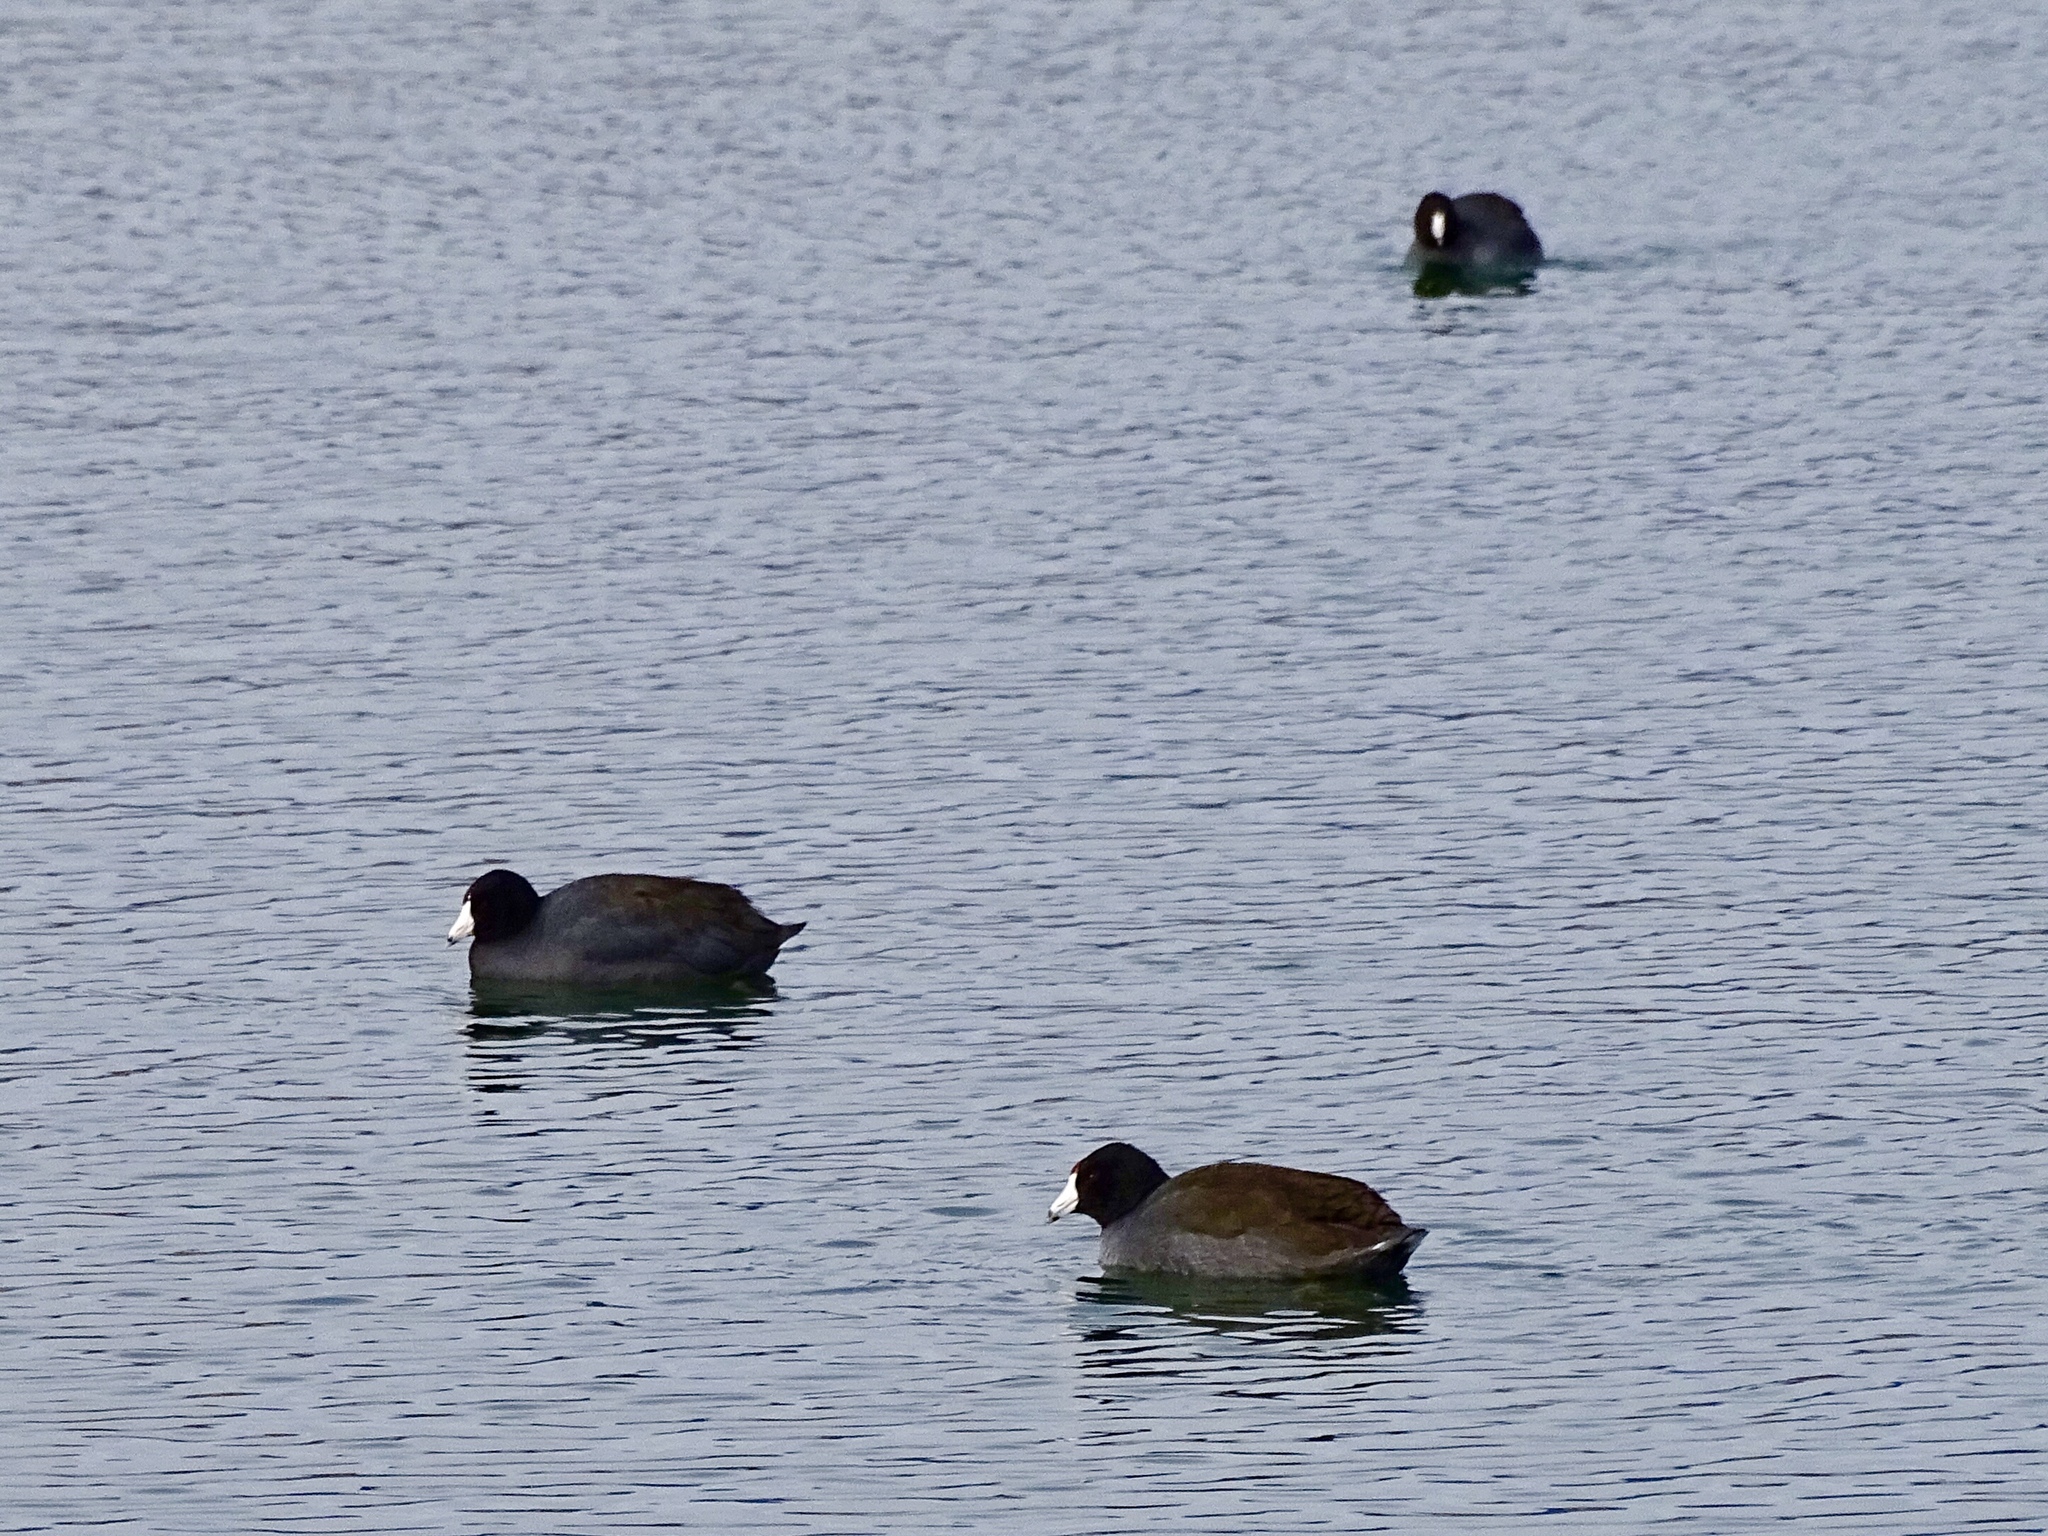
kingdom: Animalia
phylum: Chordata
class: Aves
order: Gruiformes
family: Rallidae
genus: Fulica
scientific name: Fulica americana
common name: American coot
